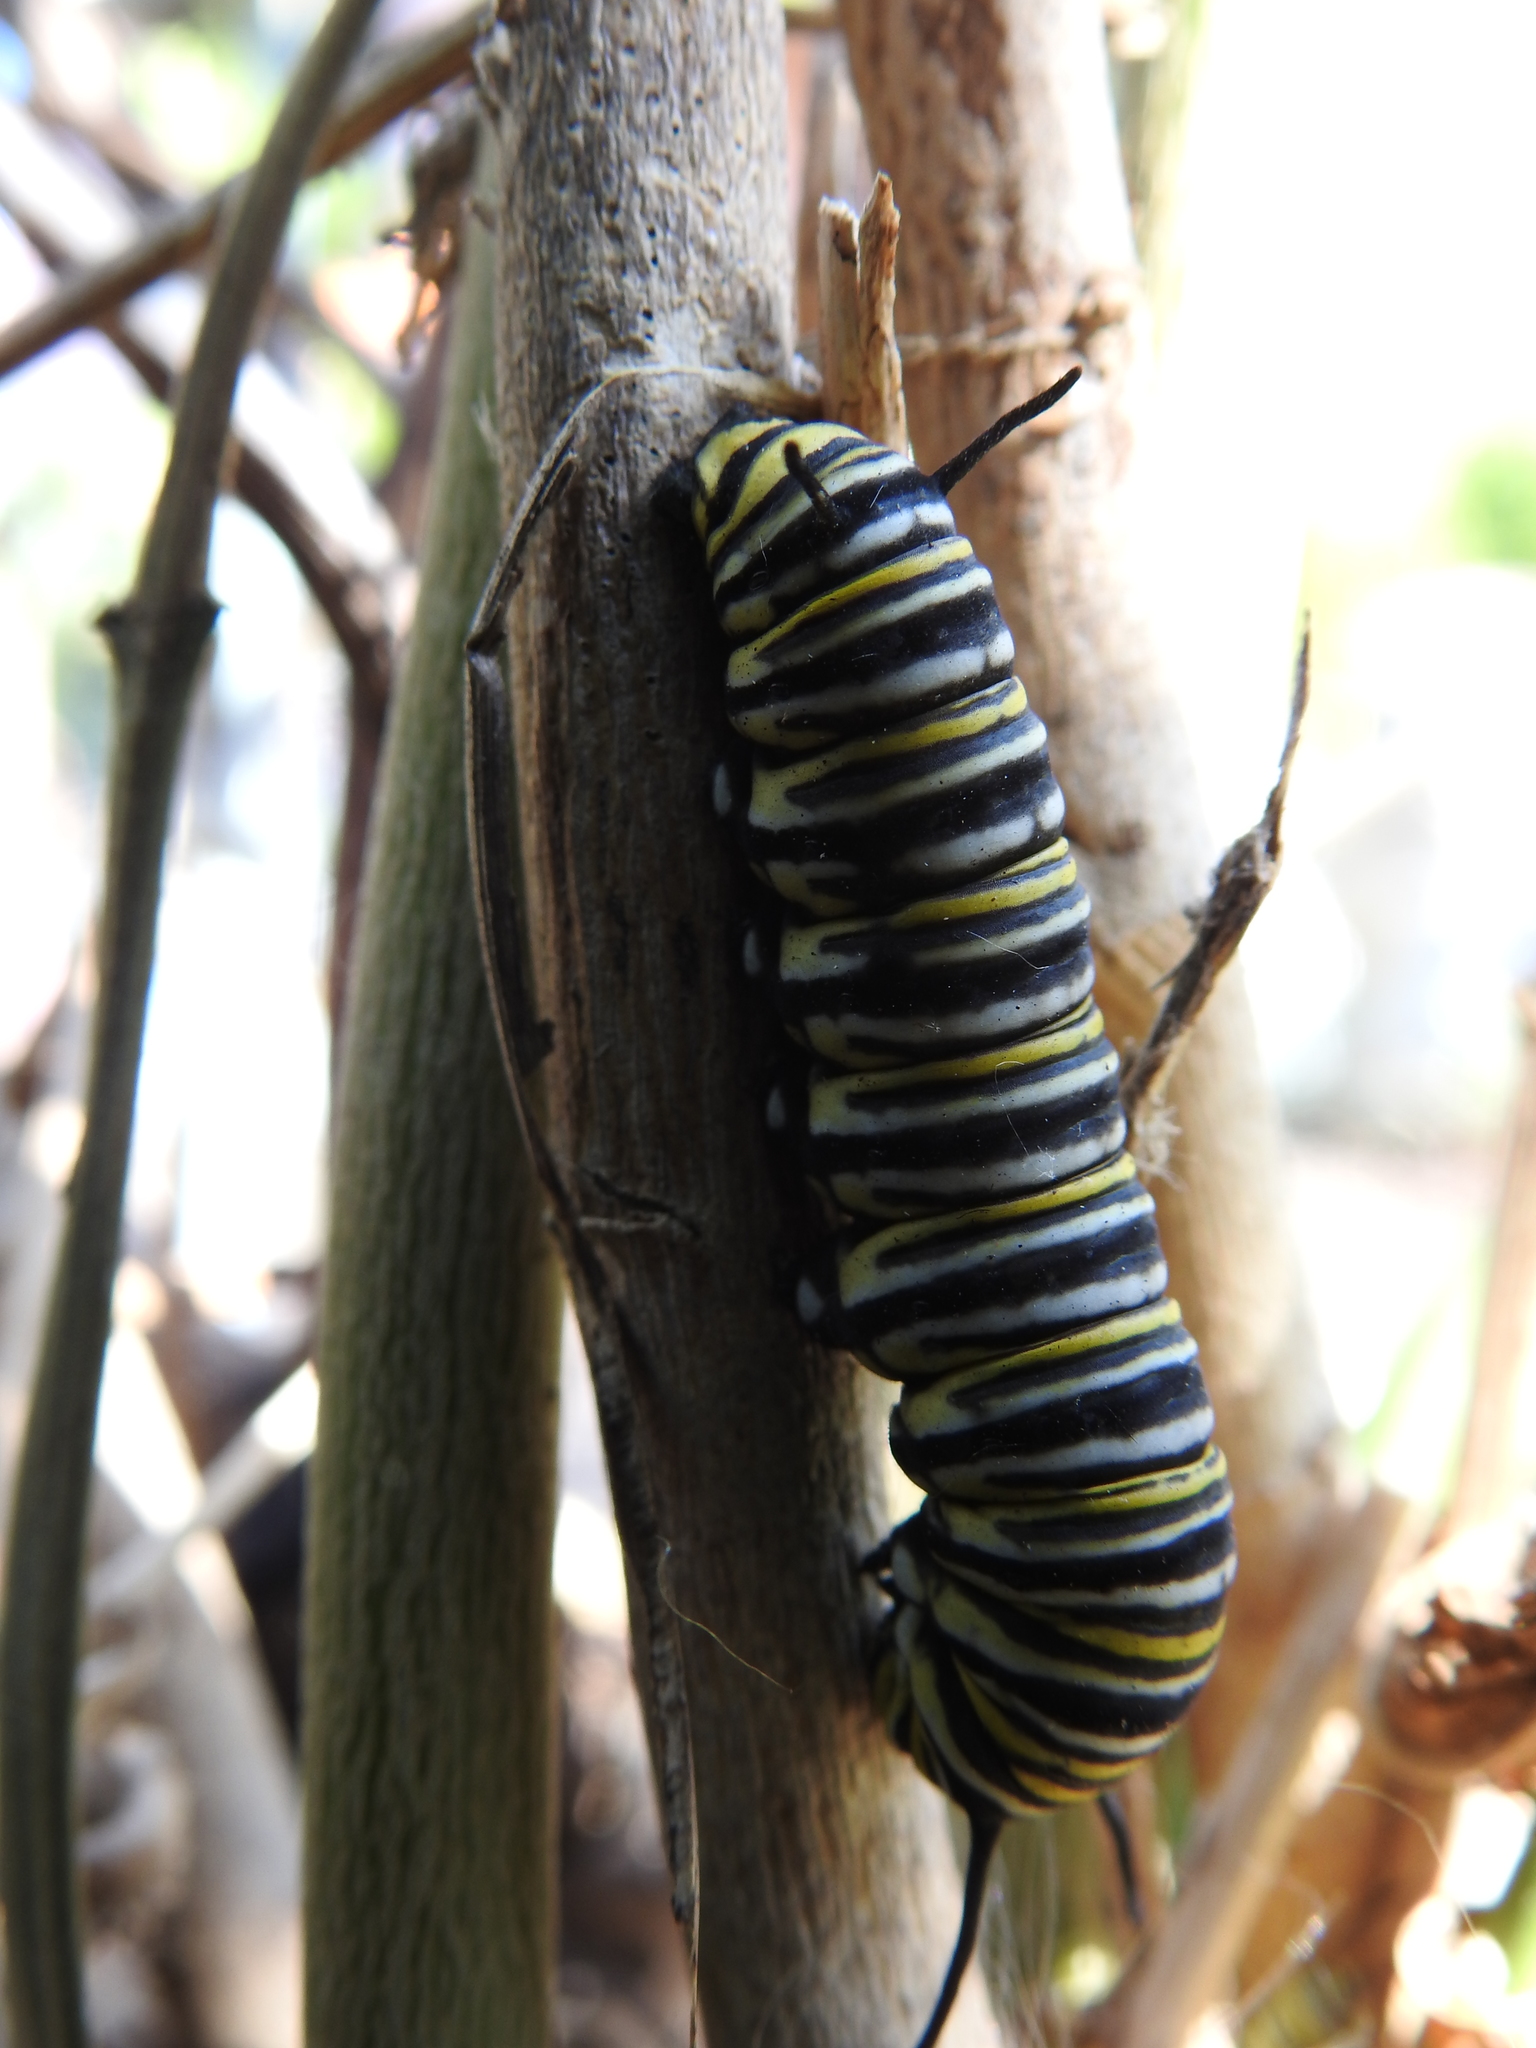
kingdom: Animalia
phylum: Arthropoda
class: Insecta
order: Lepidoptera
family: Nymphalidae
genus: Danaus
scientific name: Danaus plexippus
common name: Monarch
